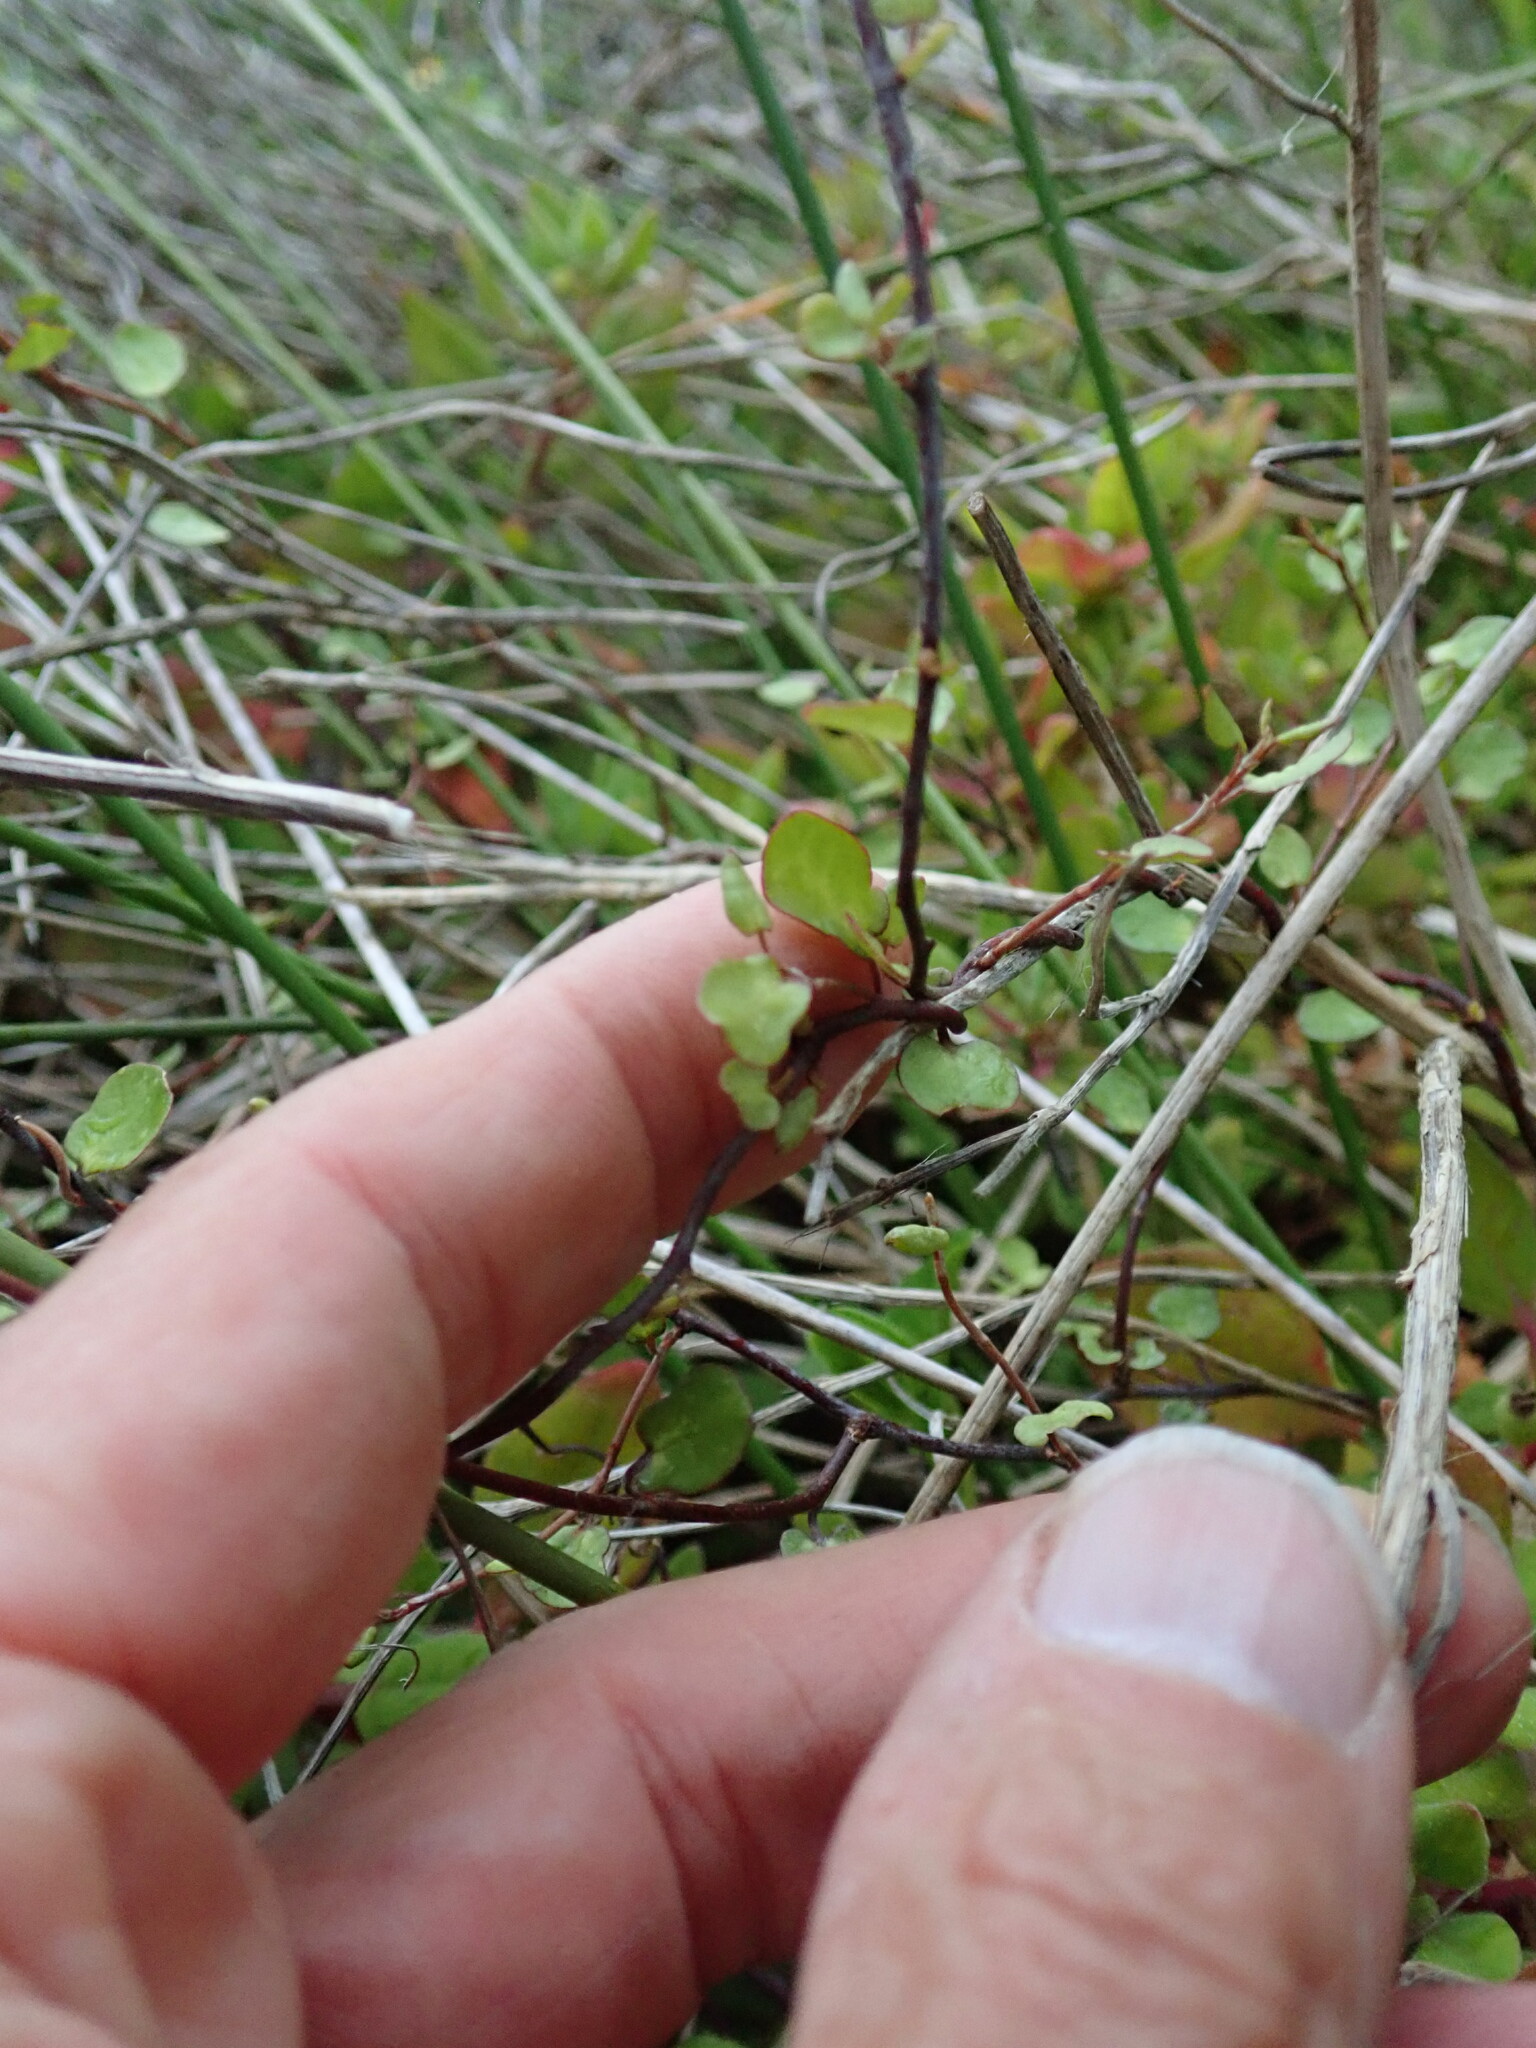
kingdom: Plantae
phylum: Tracheophyta
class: Magnoliopsida
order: Caryophyllales
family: Polygonaceae
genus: Muehlenbeckia
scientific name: Muehlenbeckia complexa
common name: Wireplant
